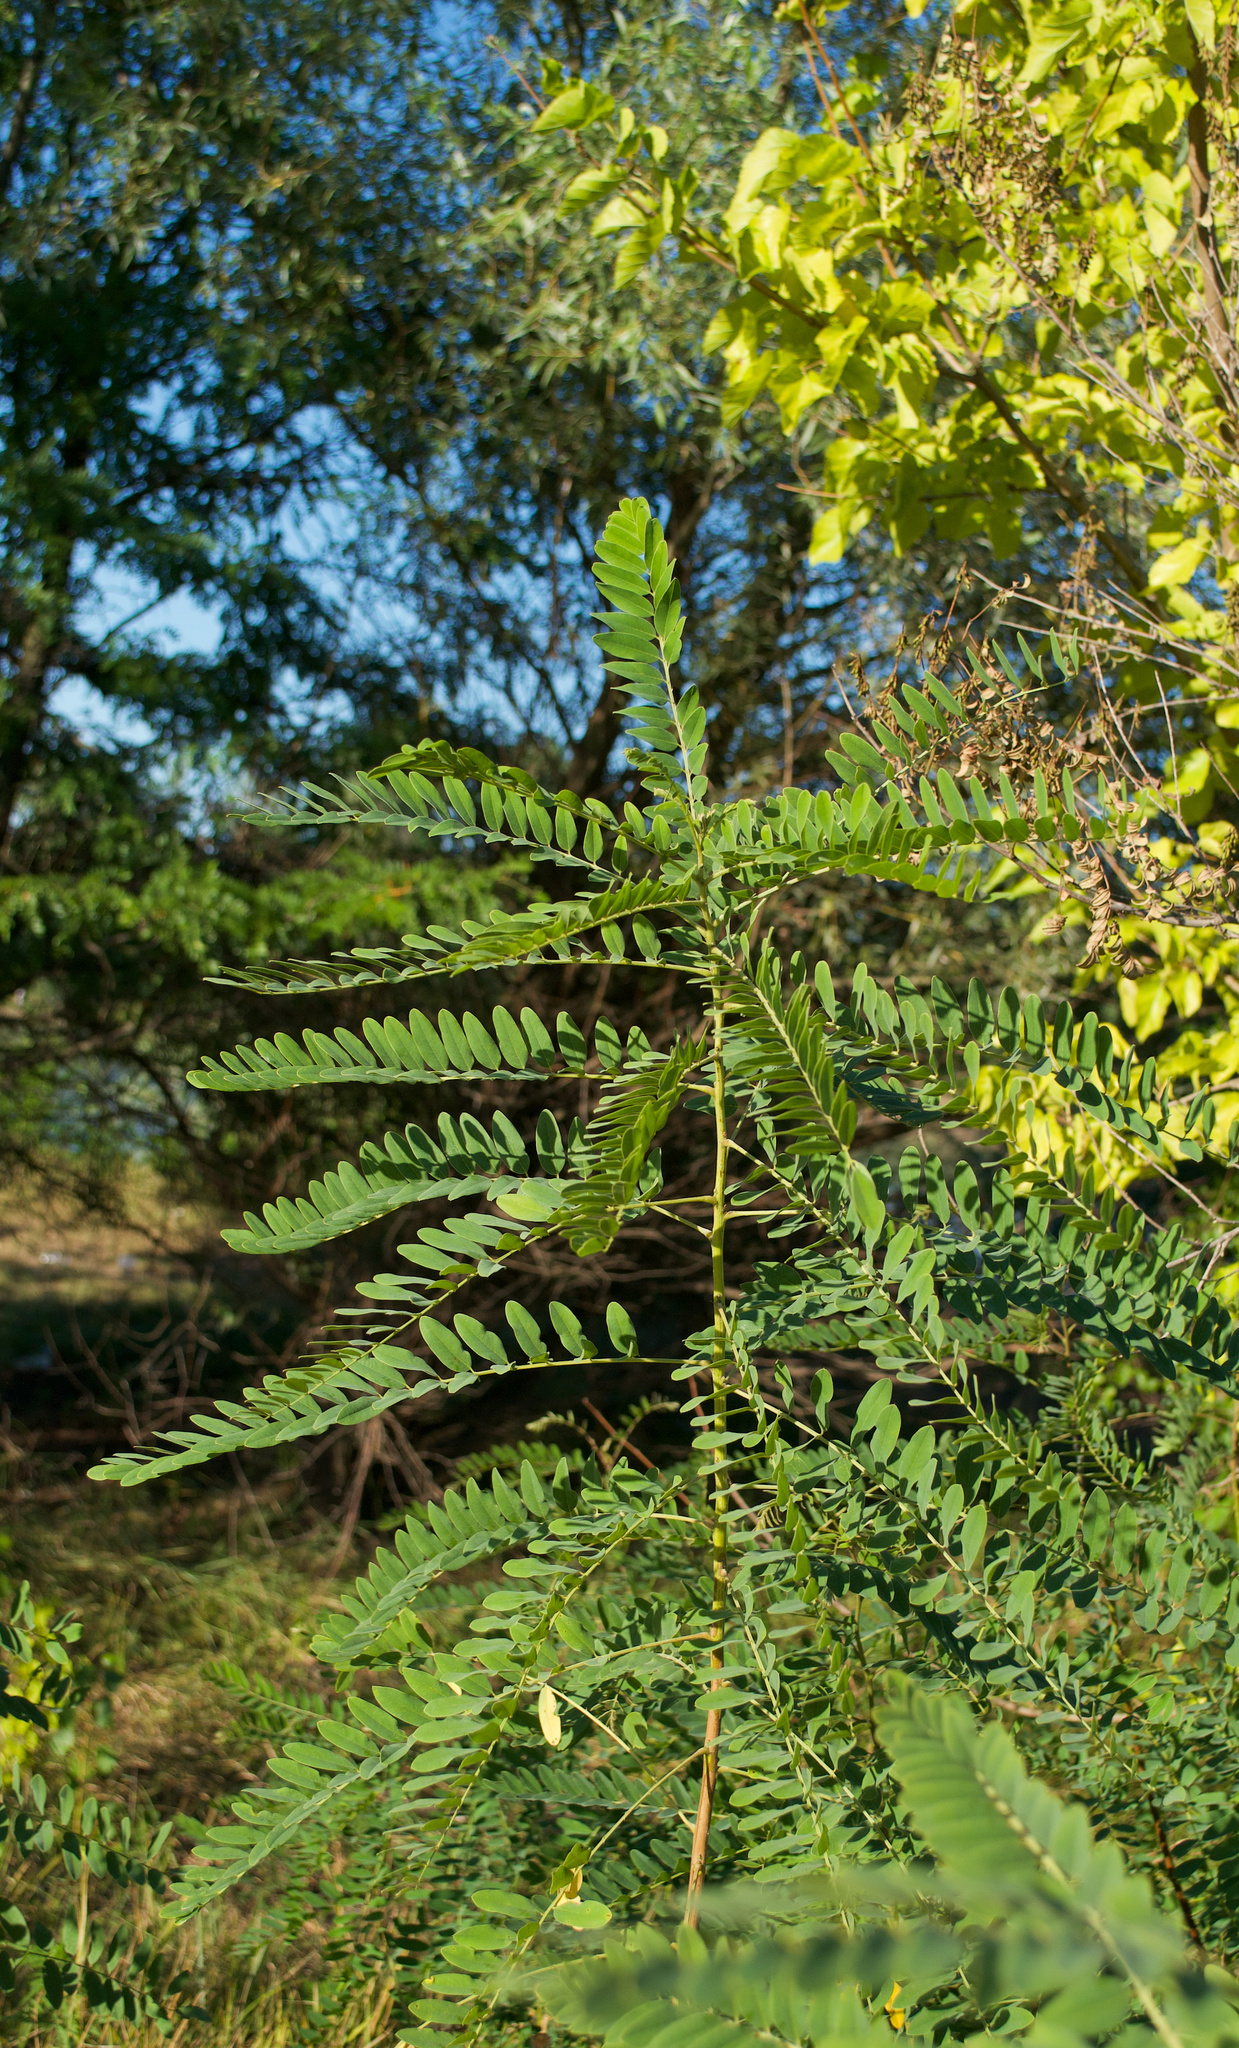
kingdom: Plantae
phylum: Tracheophyta
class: Magnoliopsida
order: Fabales
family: Fabaceae
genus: Amorpha
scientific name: Amorpha fruticosa
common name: False indigo
